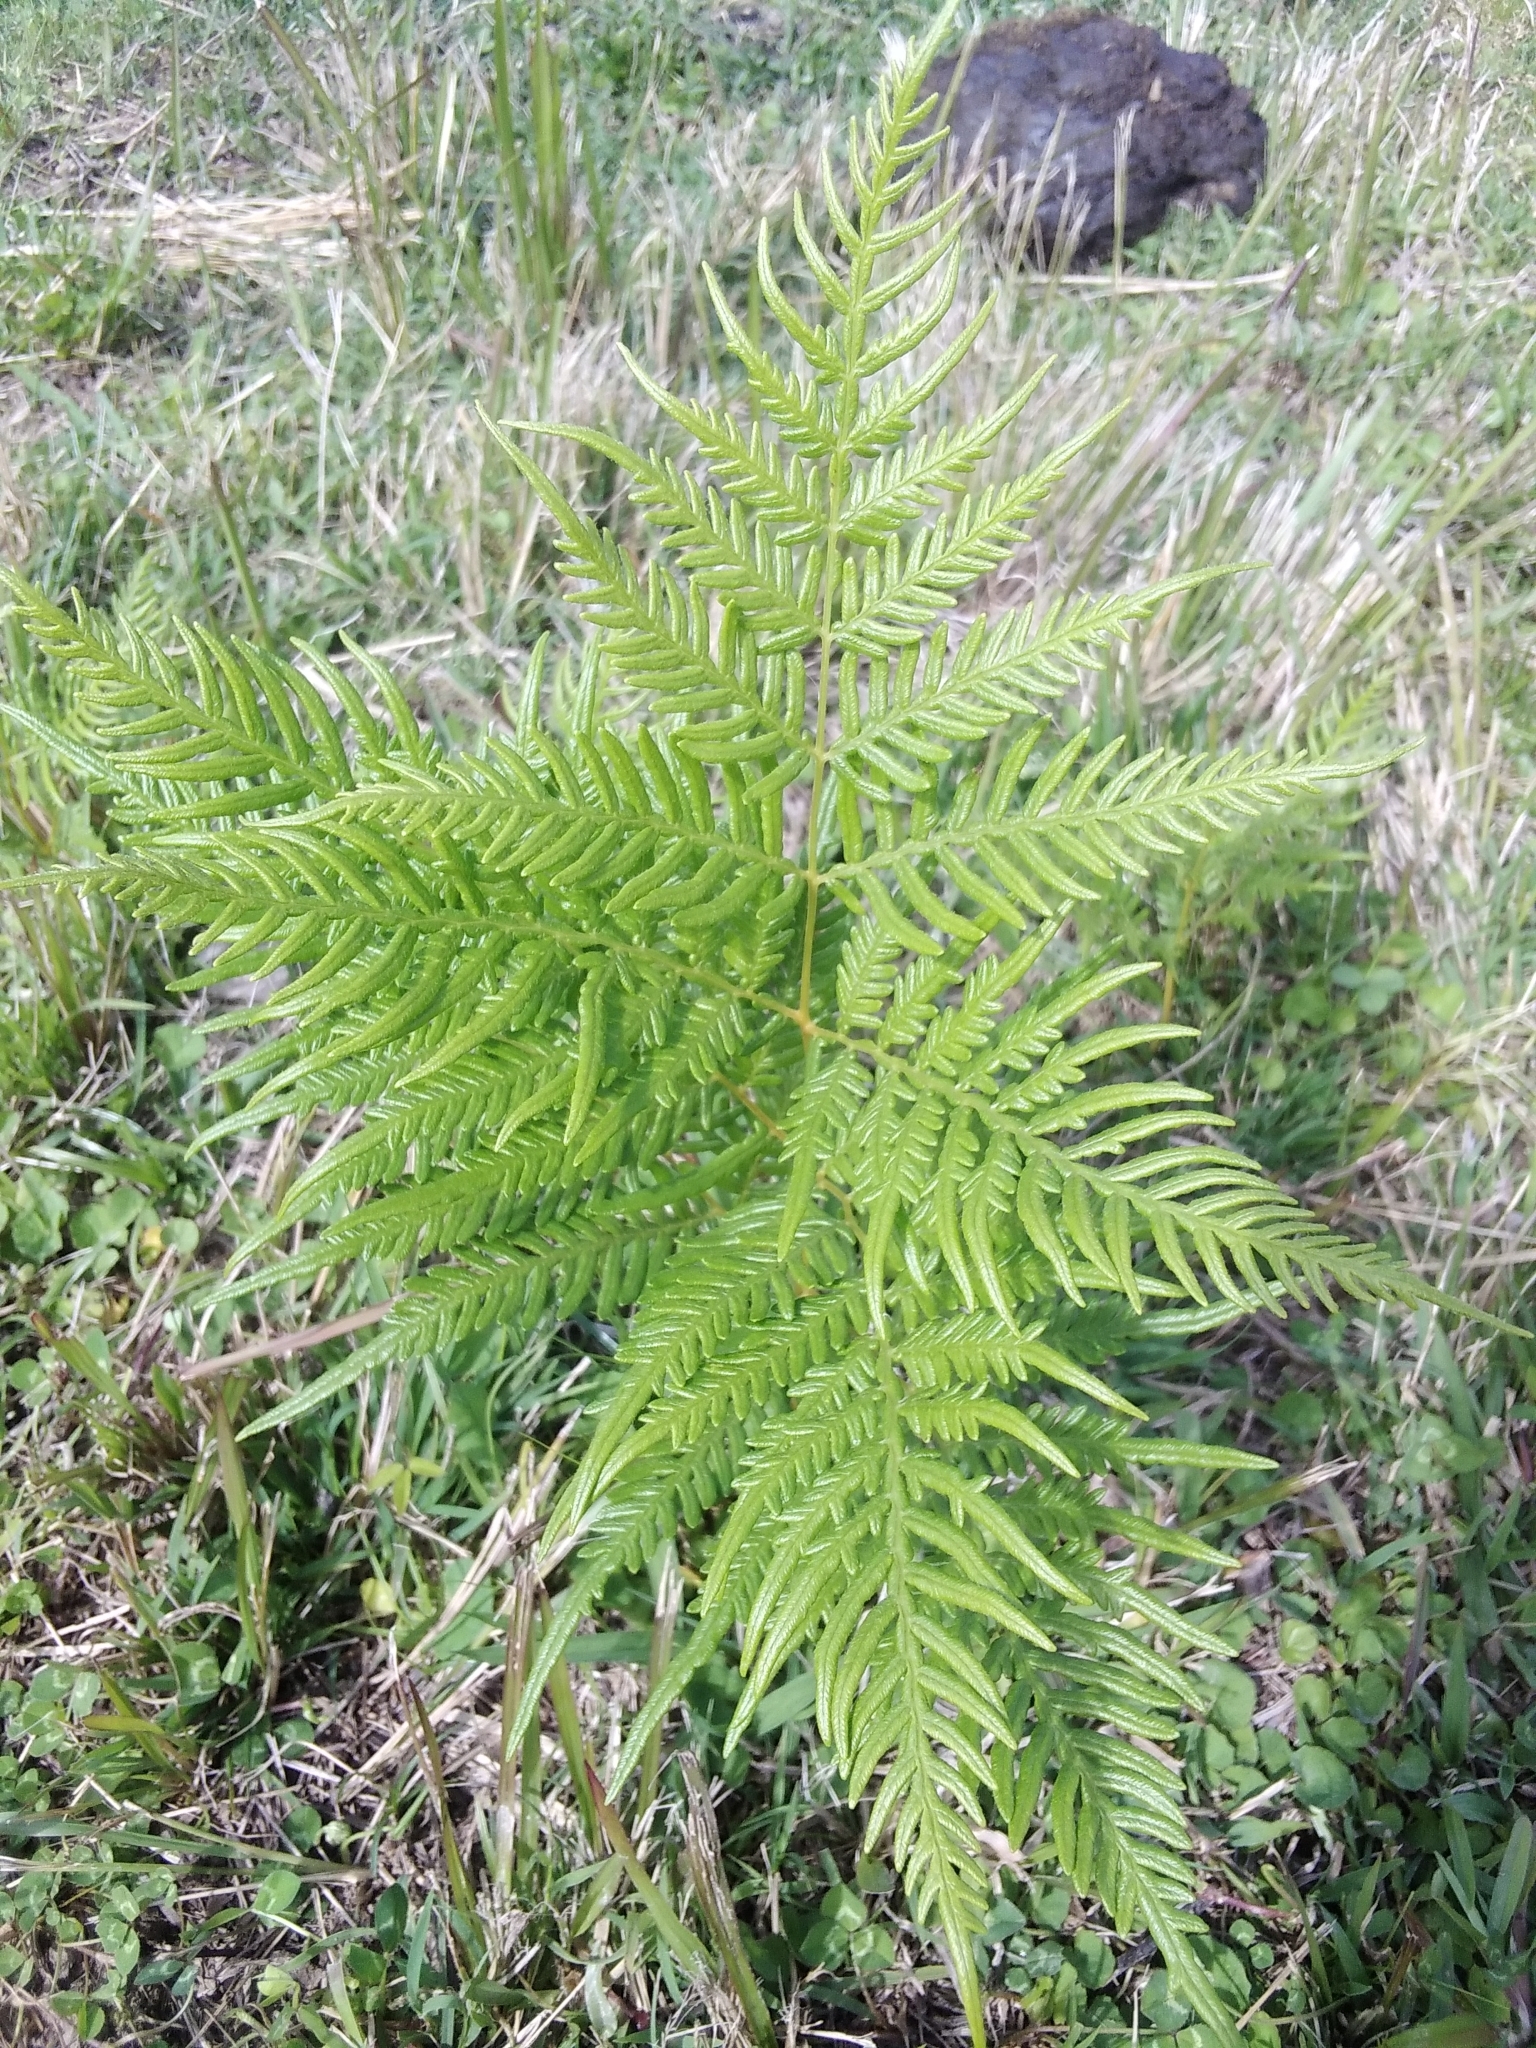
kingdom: Plantae
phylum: Tracheophyta
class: Polypodiopsida
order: Polypodiales
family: Dennstaedtiaceae
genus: Pteridium
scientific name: Pteridium esculentum
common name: Bracken fern
